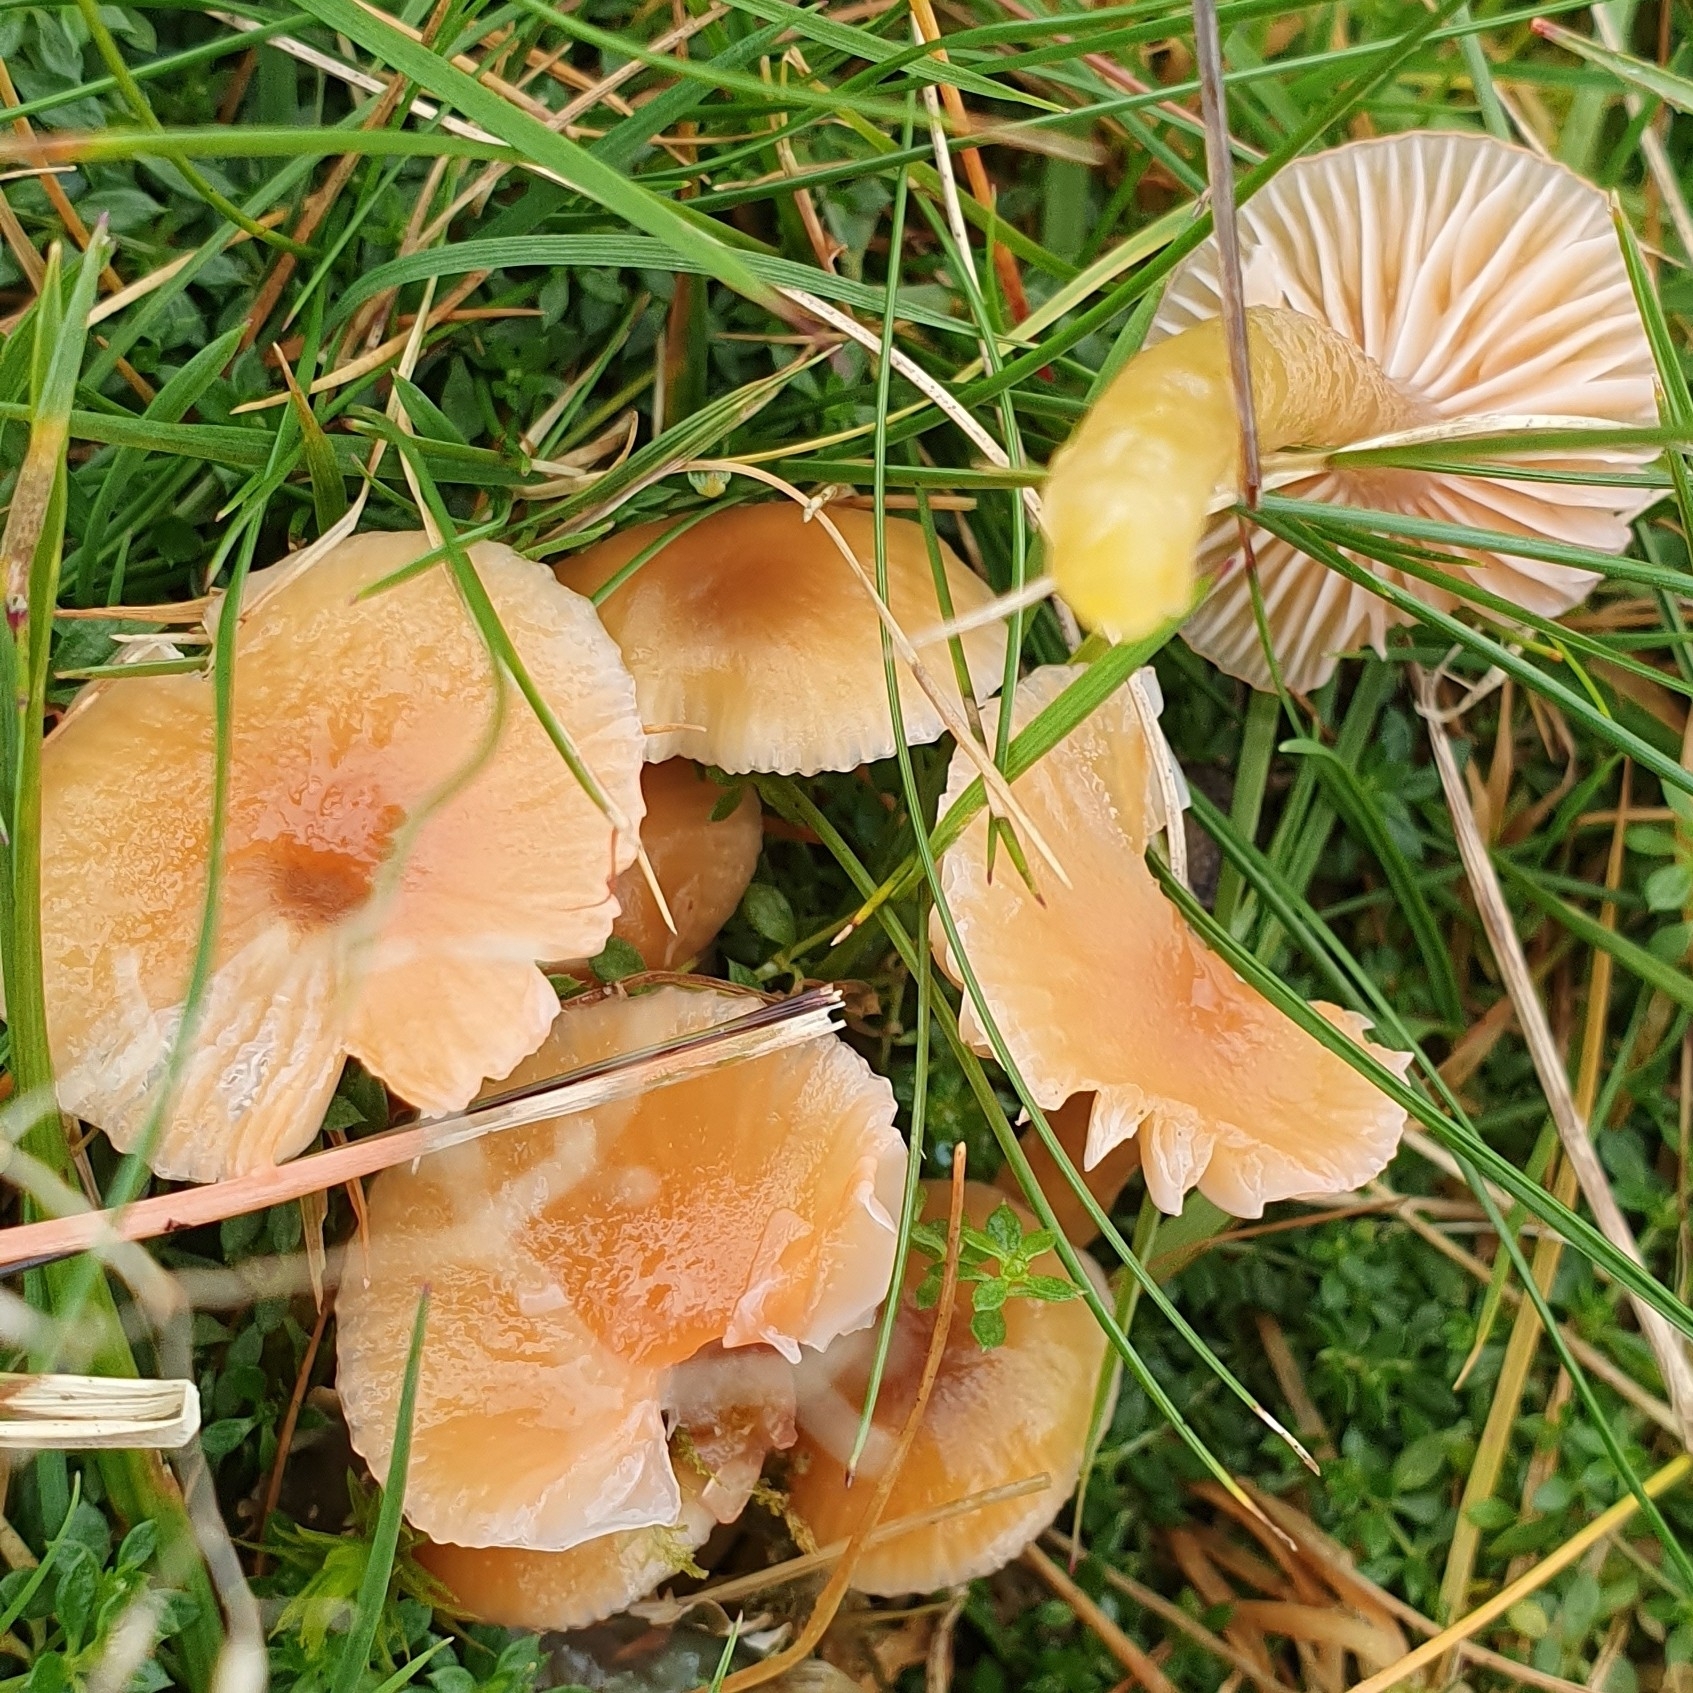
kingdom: Fungi
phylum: Basidiomycota
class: Agaricomycetes
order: Agaricales
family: Hygrophoraceae
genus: Gliophorus
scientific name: Gliophorus laetus
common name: Heath waxcap
